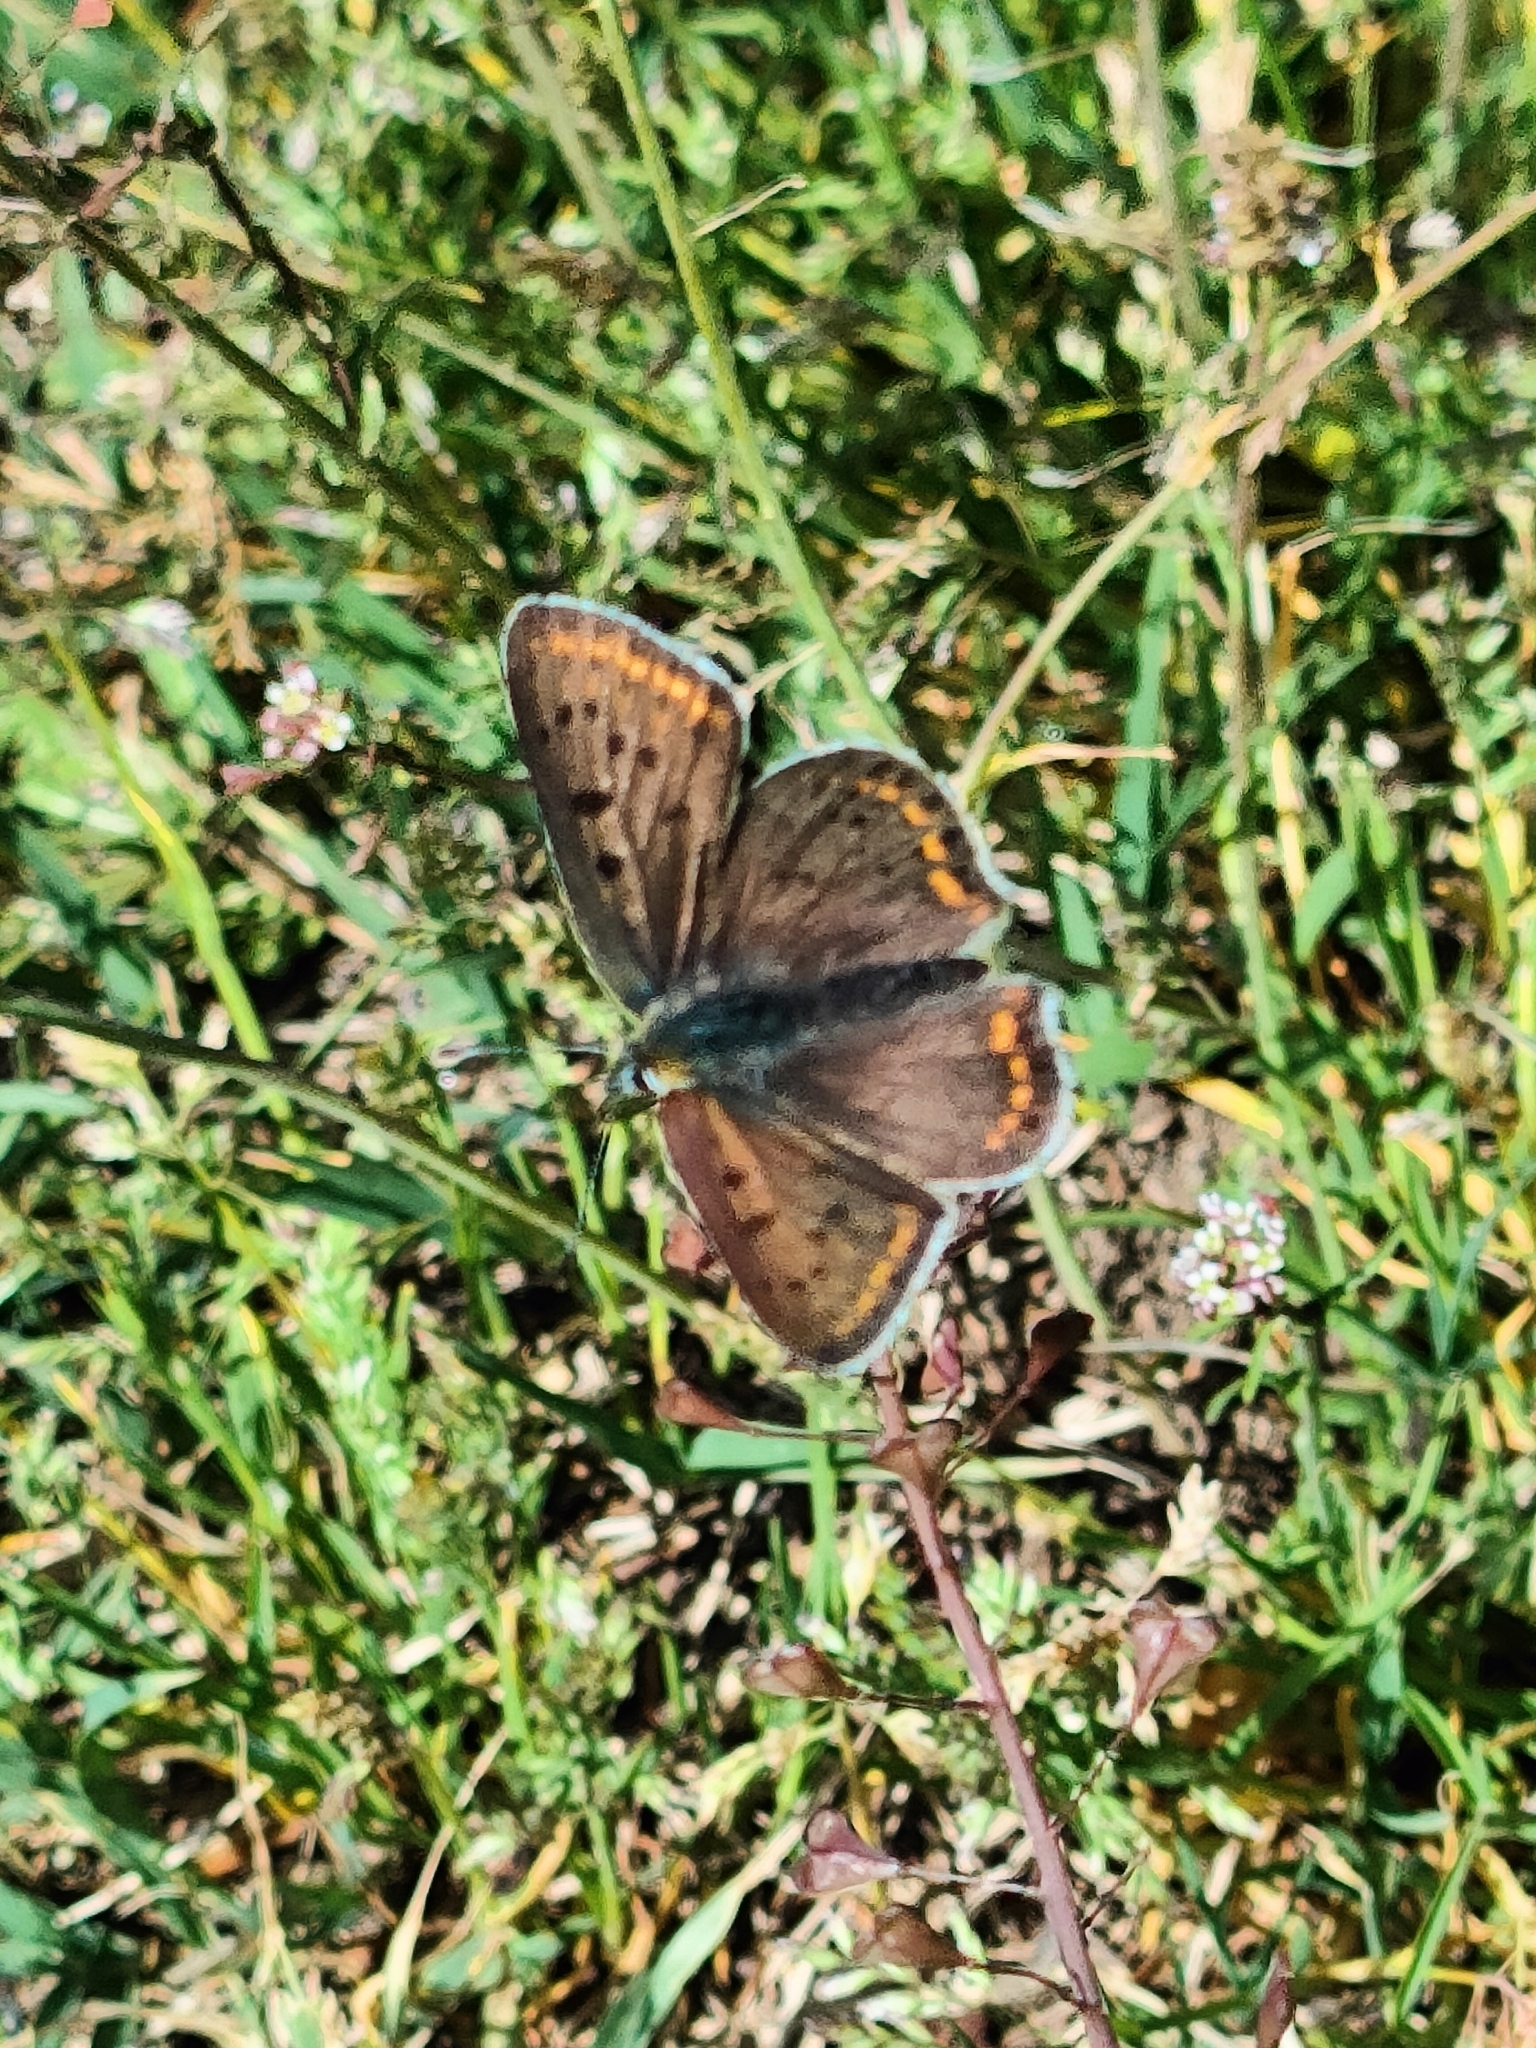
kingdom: Animalia
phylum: Arthropoda
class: Insecta
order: Lepidoptera
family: Lycaenidae
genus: Loweia
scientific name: Loweia tityrus
